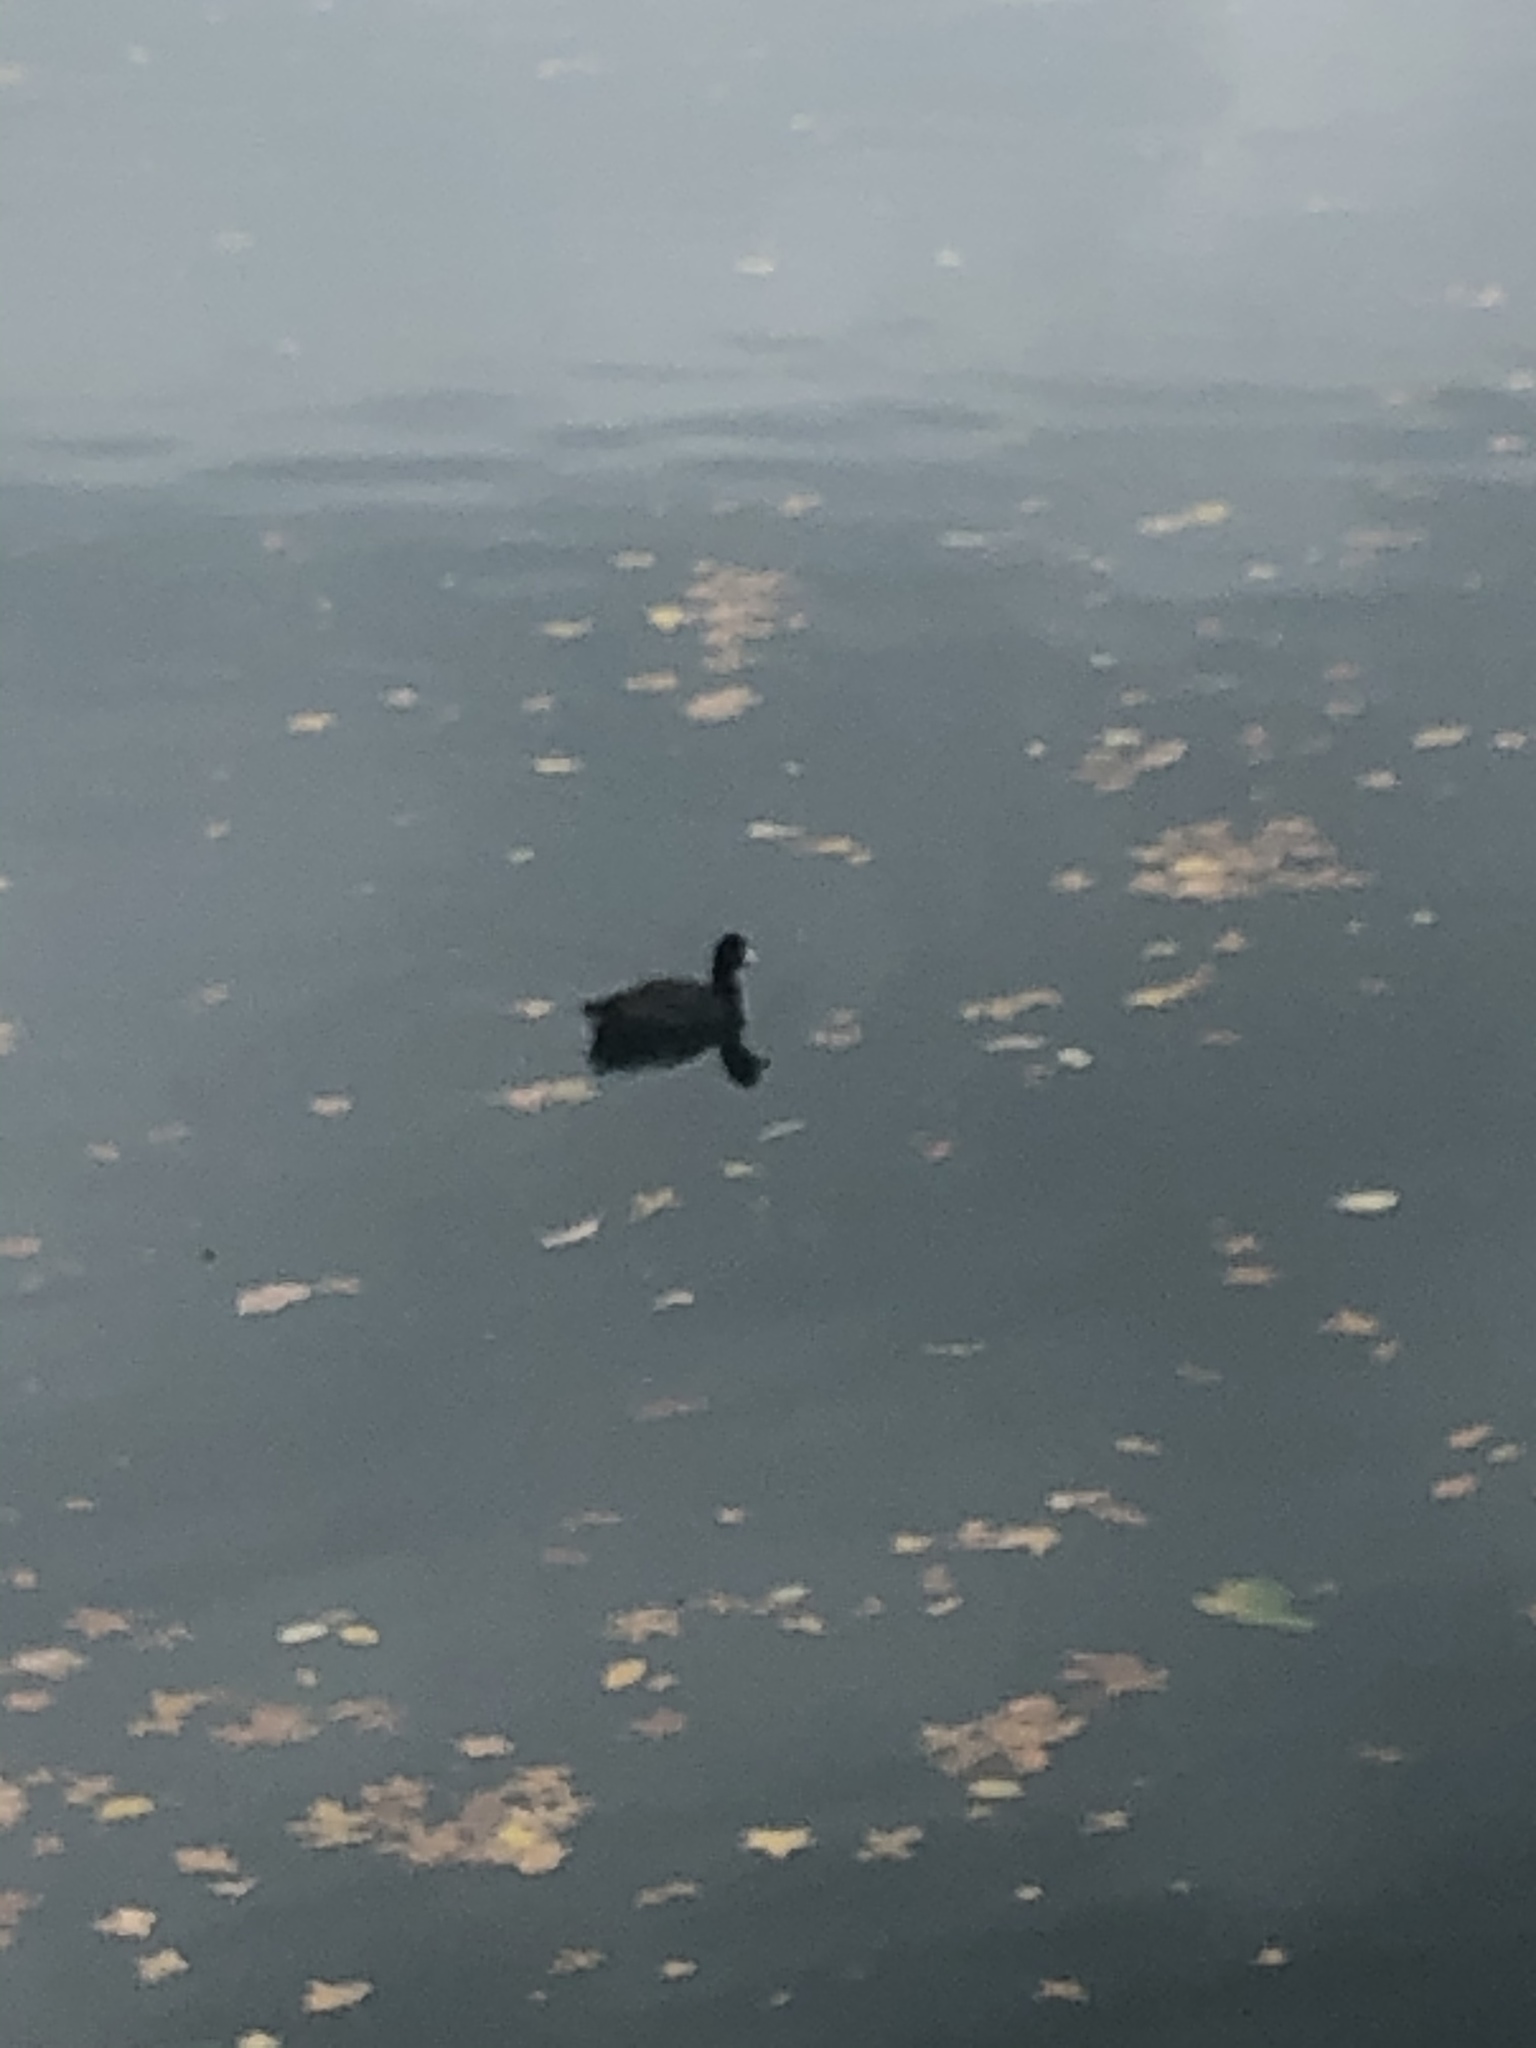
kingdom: Animalia
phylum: Chordata
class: Aves
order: Gruiformes
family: Rallidae
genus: Fulica
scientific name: Fulica americana
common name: American coot
